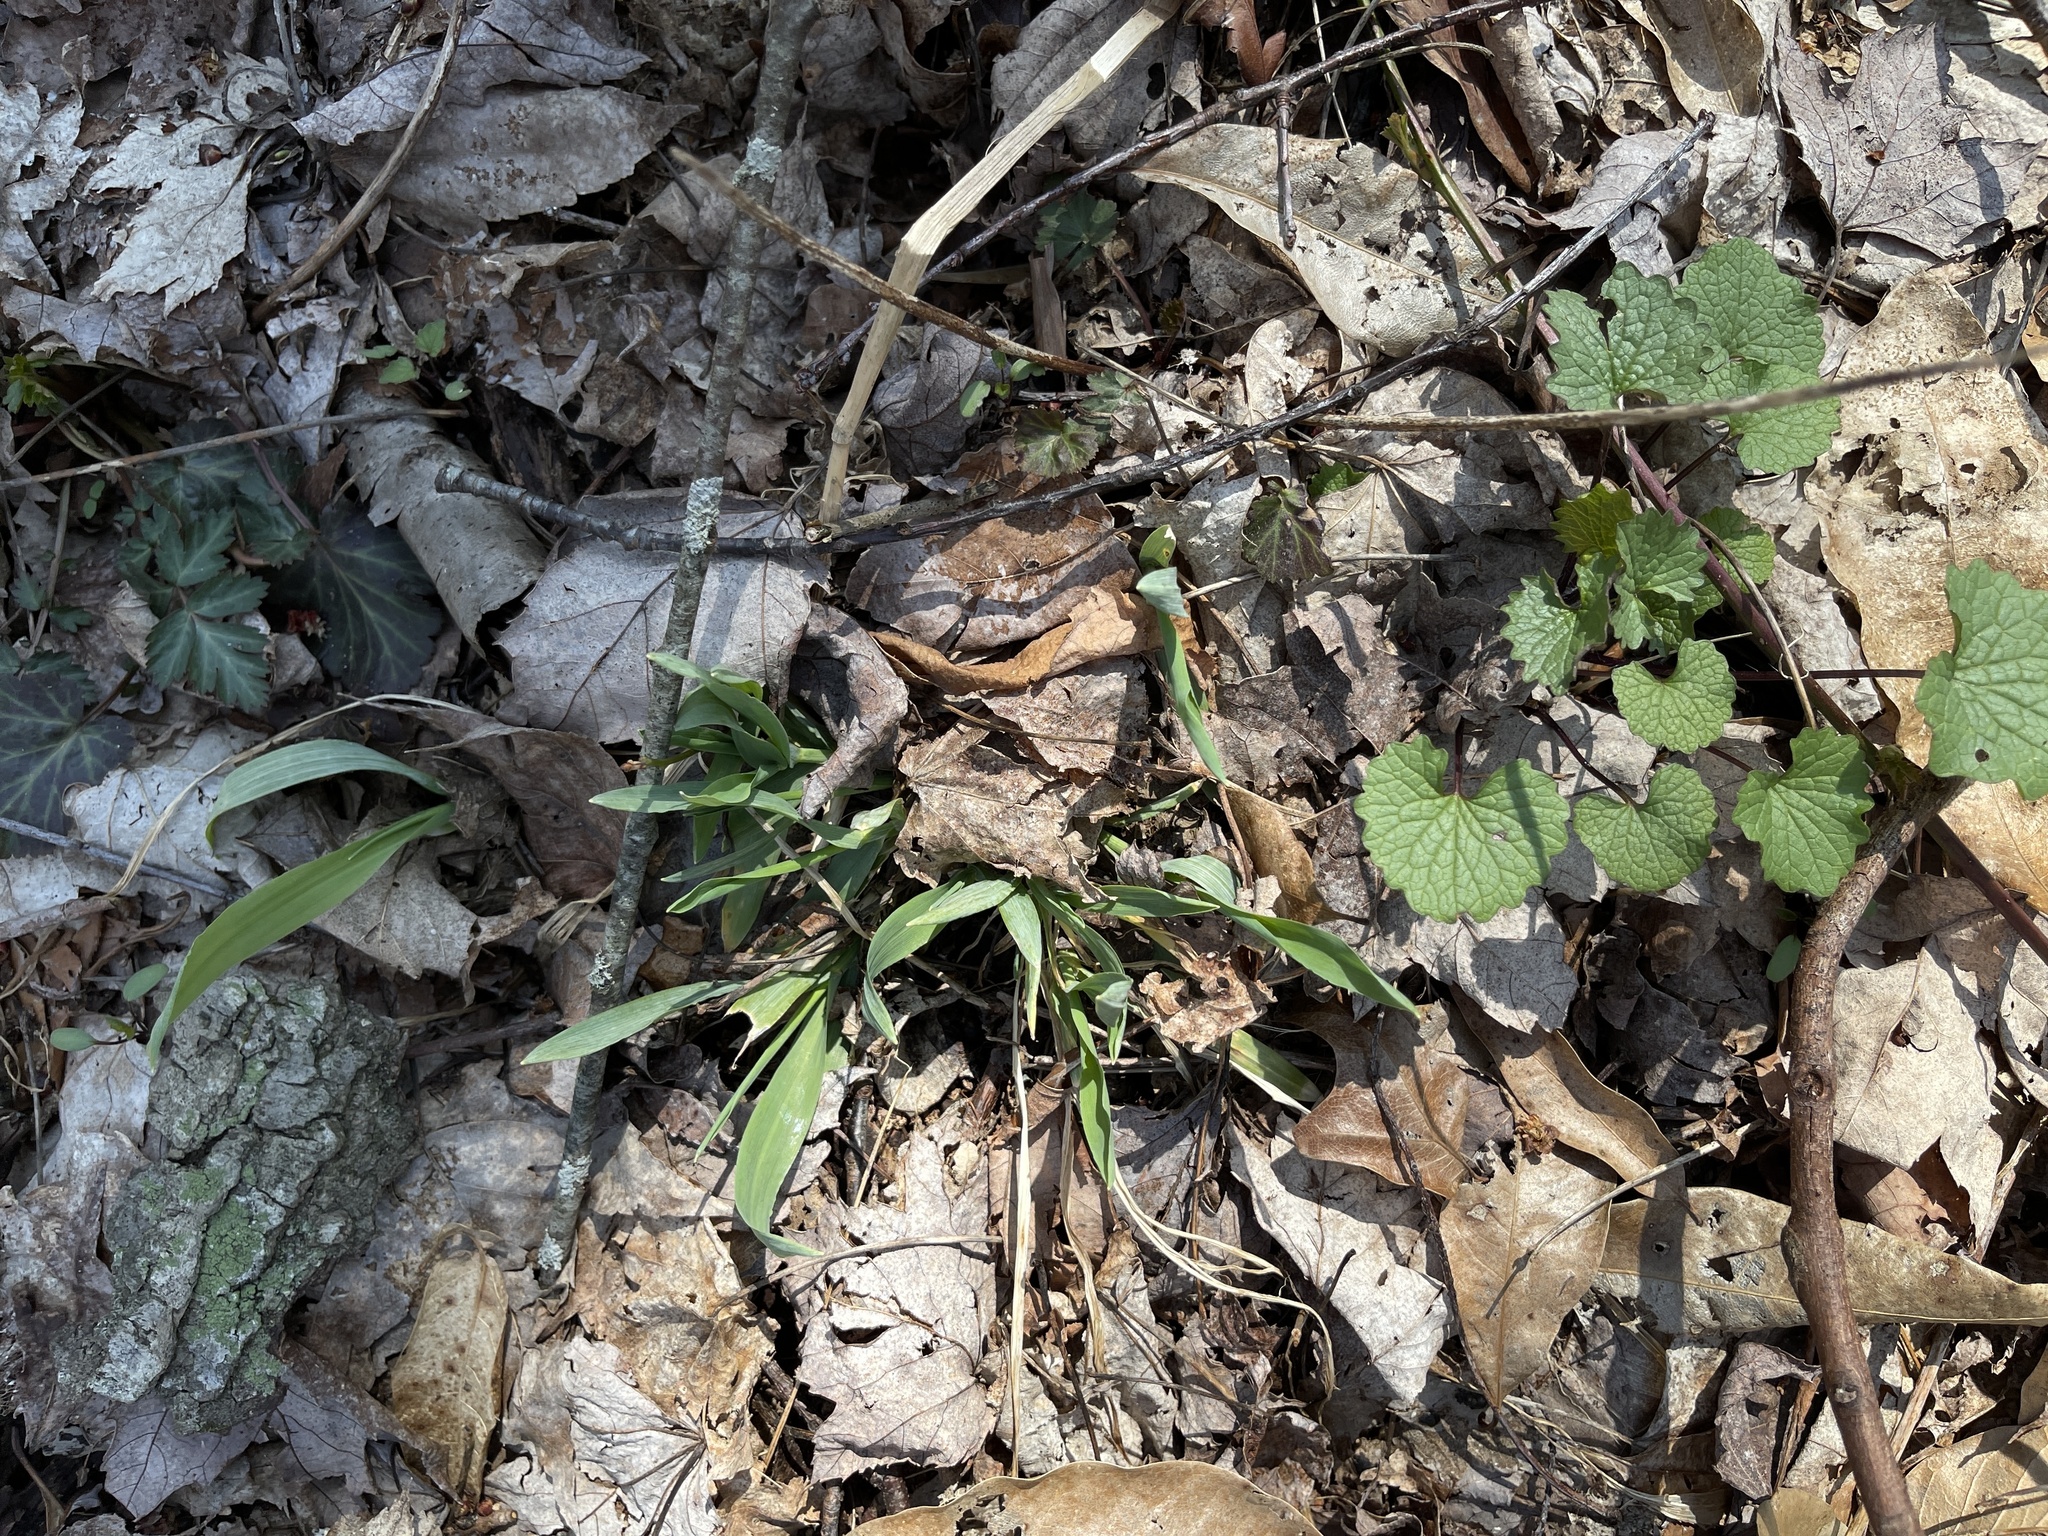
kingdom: Plantae
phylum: Tracheophyta
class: Magnoliopsida
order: Brassicales
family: Brassicaceae
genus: Alliaria
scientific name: Alliaria petiolata
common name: Garlic mustard
